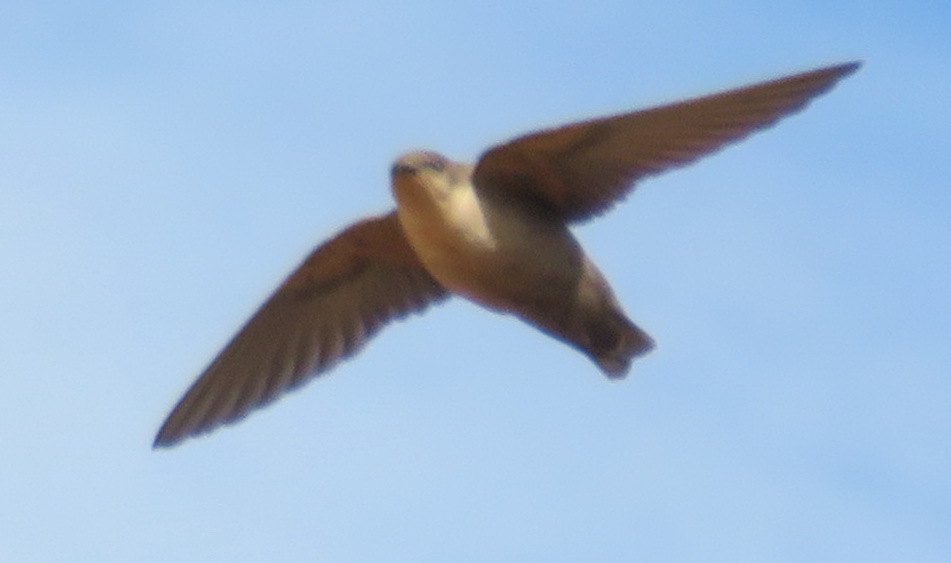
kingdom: Animalia
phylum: Chordata
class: Aves
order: Passeriformes
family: Hirundinidae
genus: Ptyonoprogne
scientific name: Ptyonoprogne fuligula
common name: Rock martin
